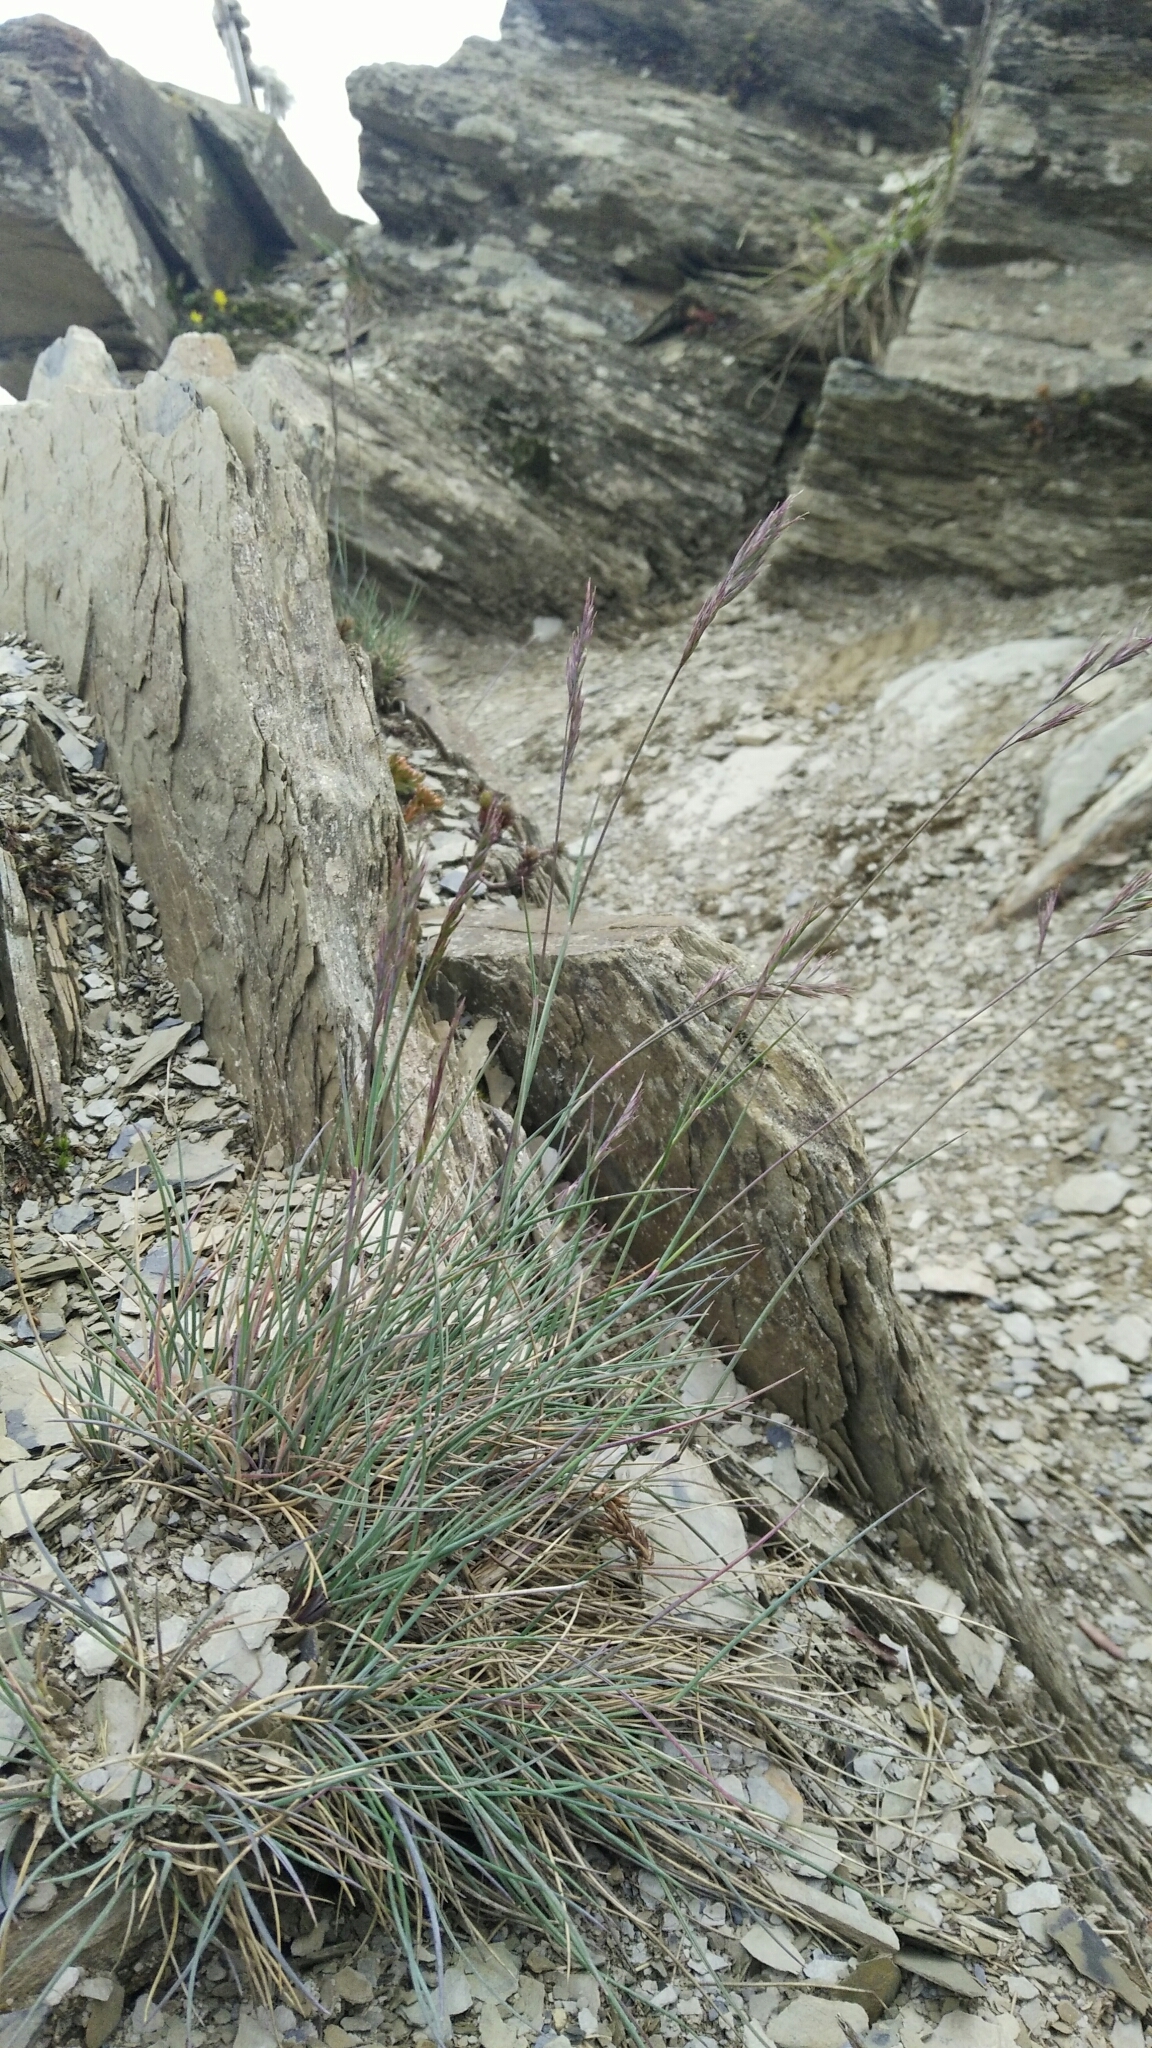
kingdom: Plantae
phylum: Tracheophyta
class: Liliopsida
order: Poales
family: Poaceae
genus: Festuca
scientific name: Festuca ovina
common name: Sheep fescue
